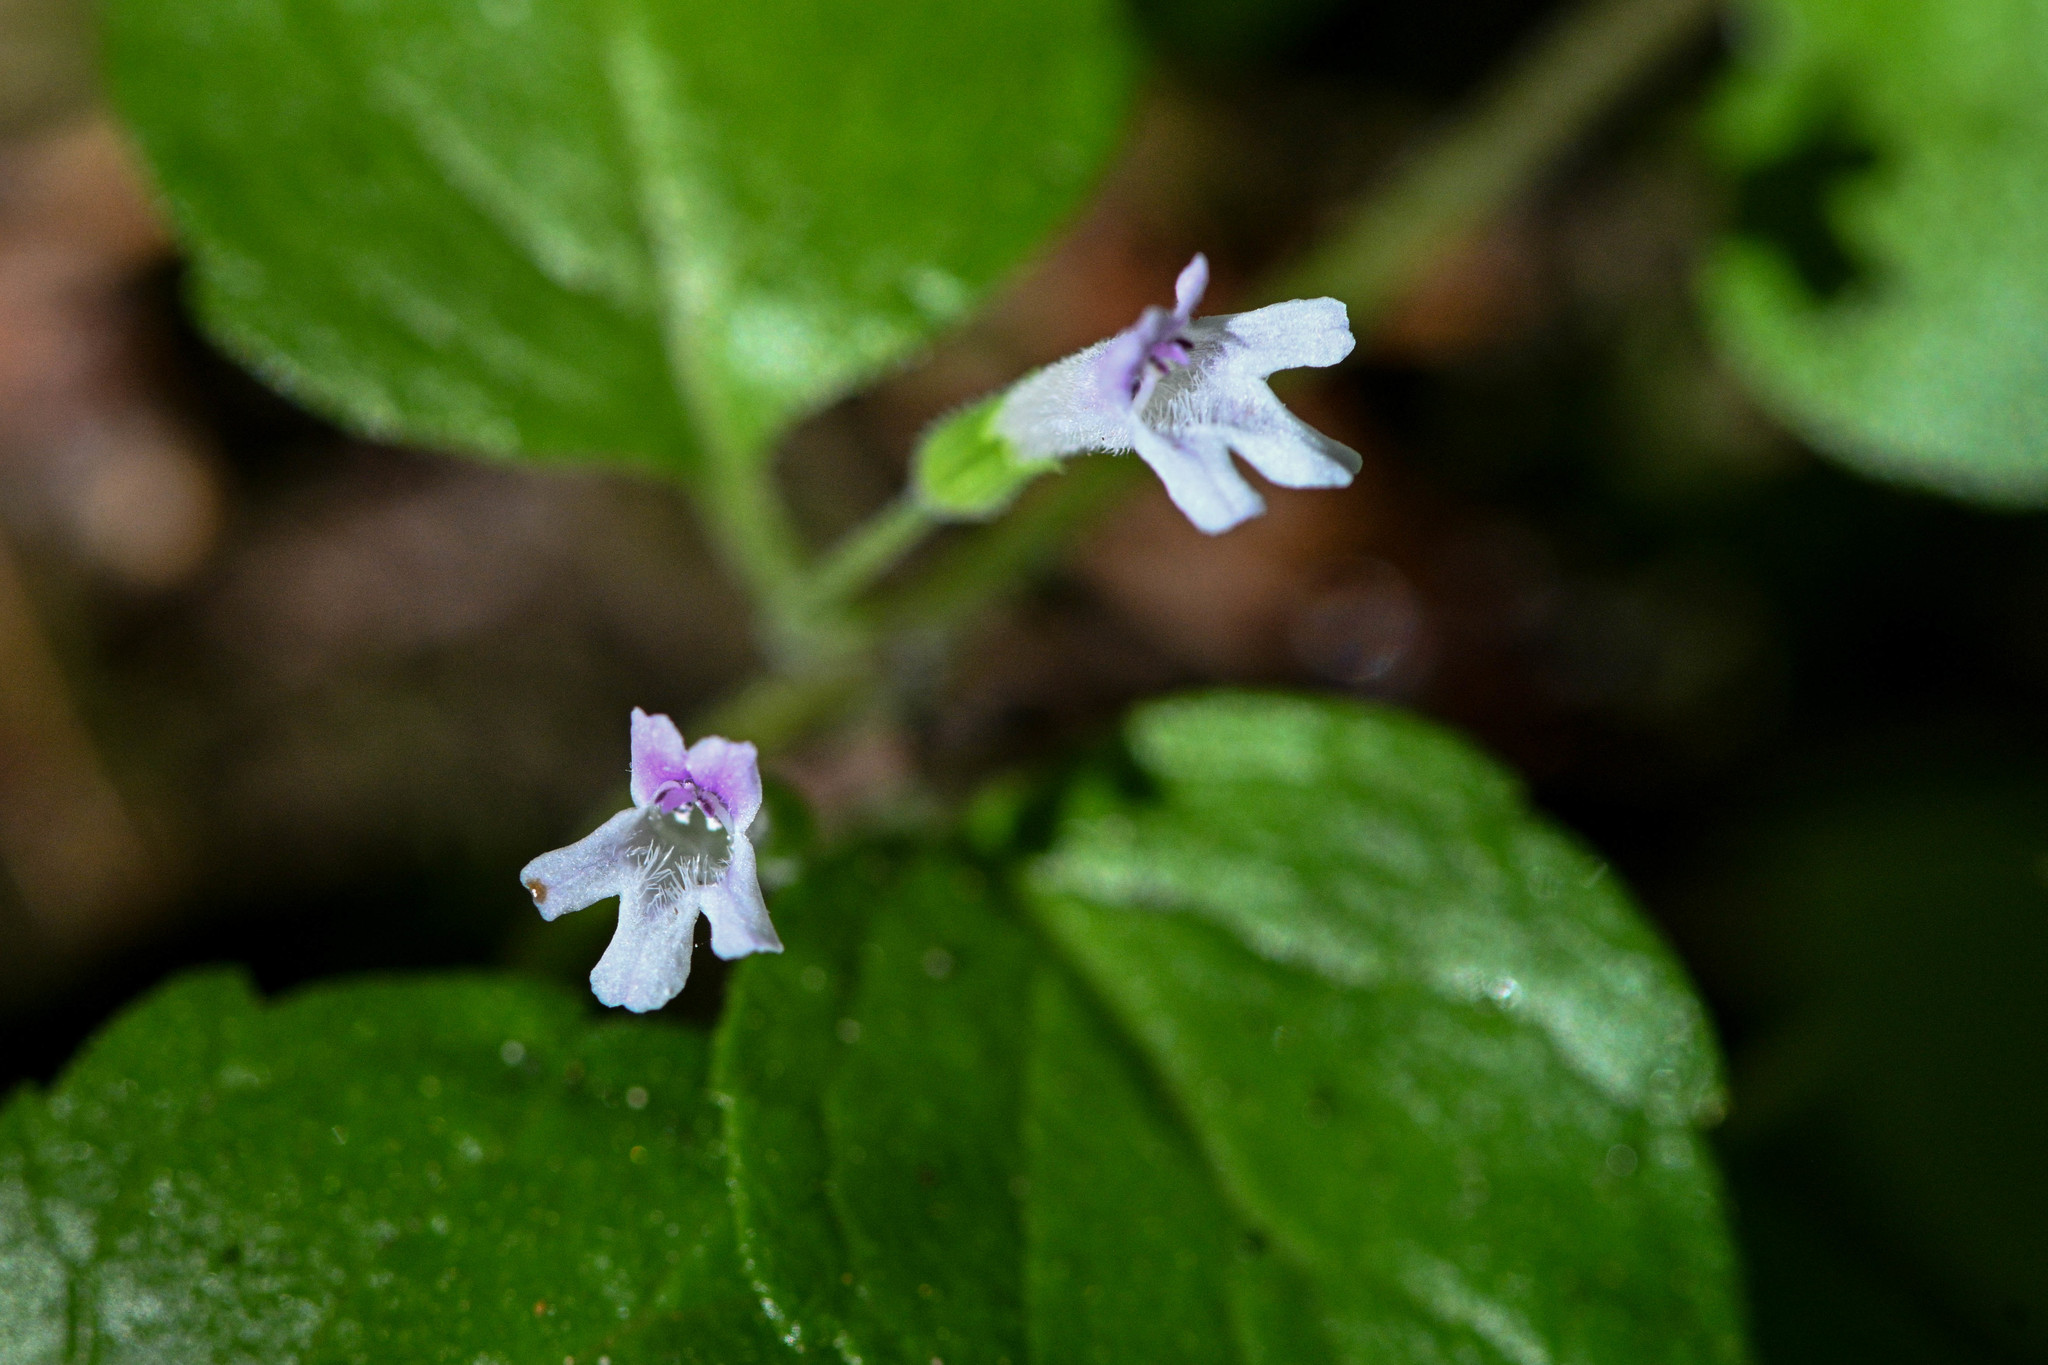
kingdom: Plantae
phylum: Tracheophyta
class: Magnoliopsida
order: Lamiales
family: Lamiaceae
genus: Micromeria
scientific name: Micromeria douglasii
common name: Yerba buena
